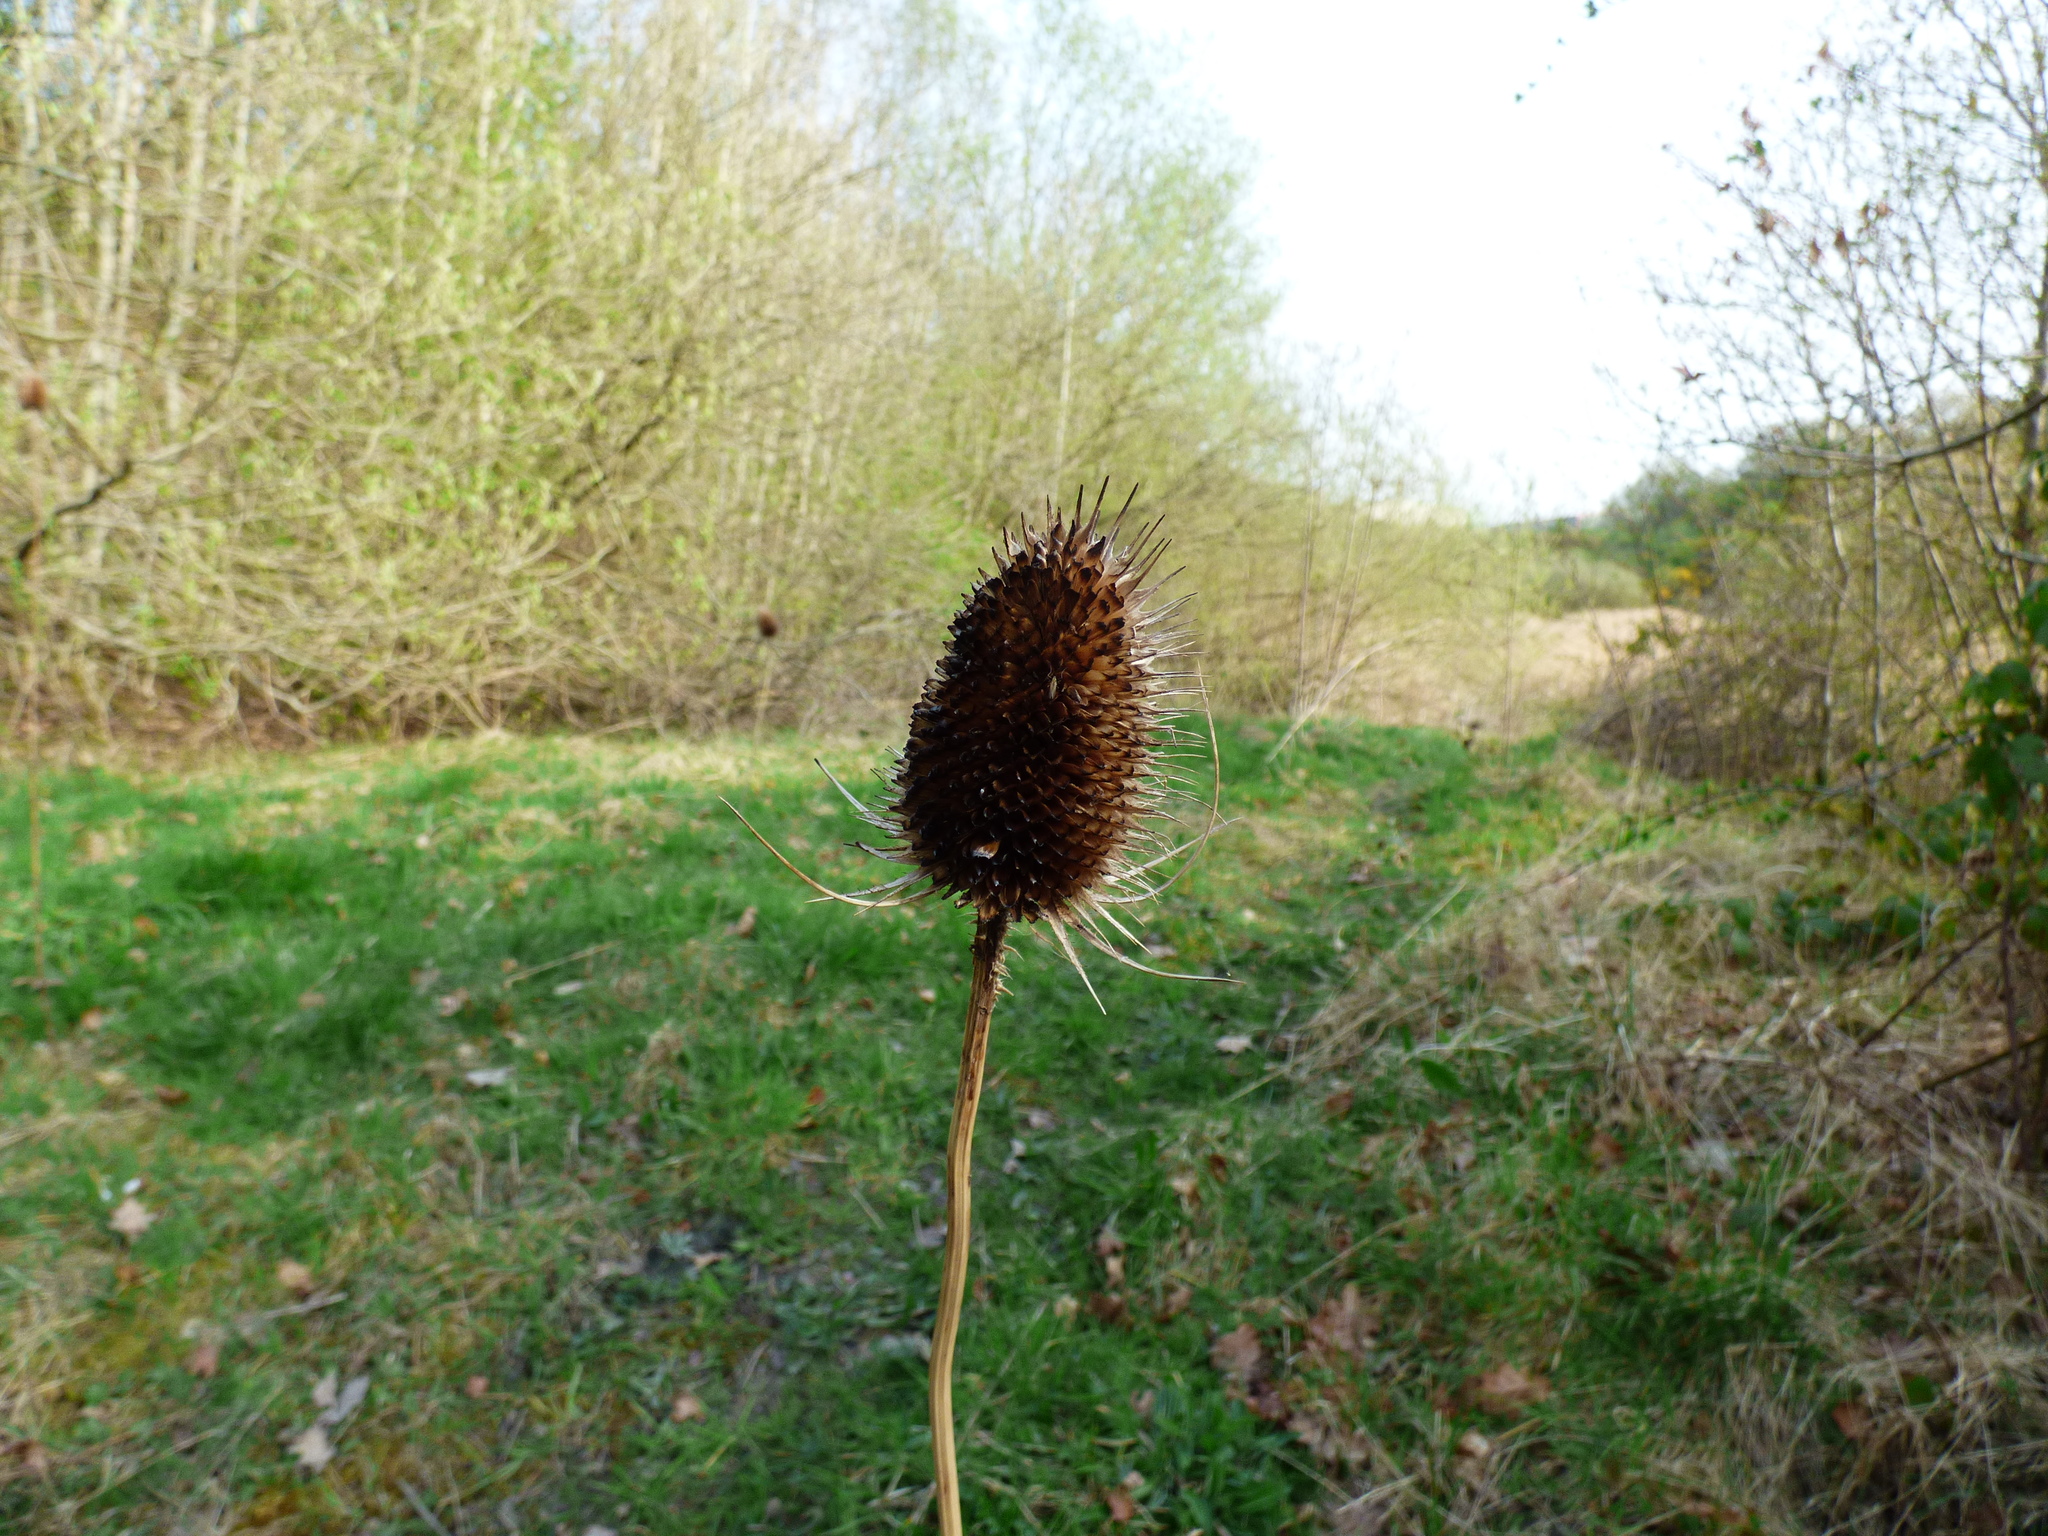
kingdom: Plantae
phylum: Tracheophyta
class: Magnoliopsida
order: Dipsacales
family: Caprifoliaceae
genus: Dipsacus
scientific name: Dipsacus fullonum
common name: Teasel
